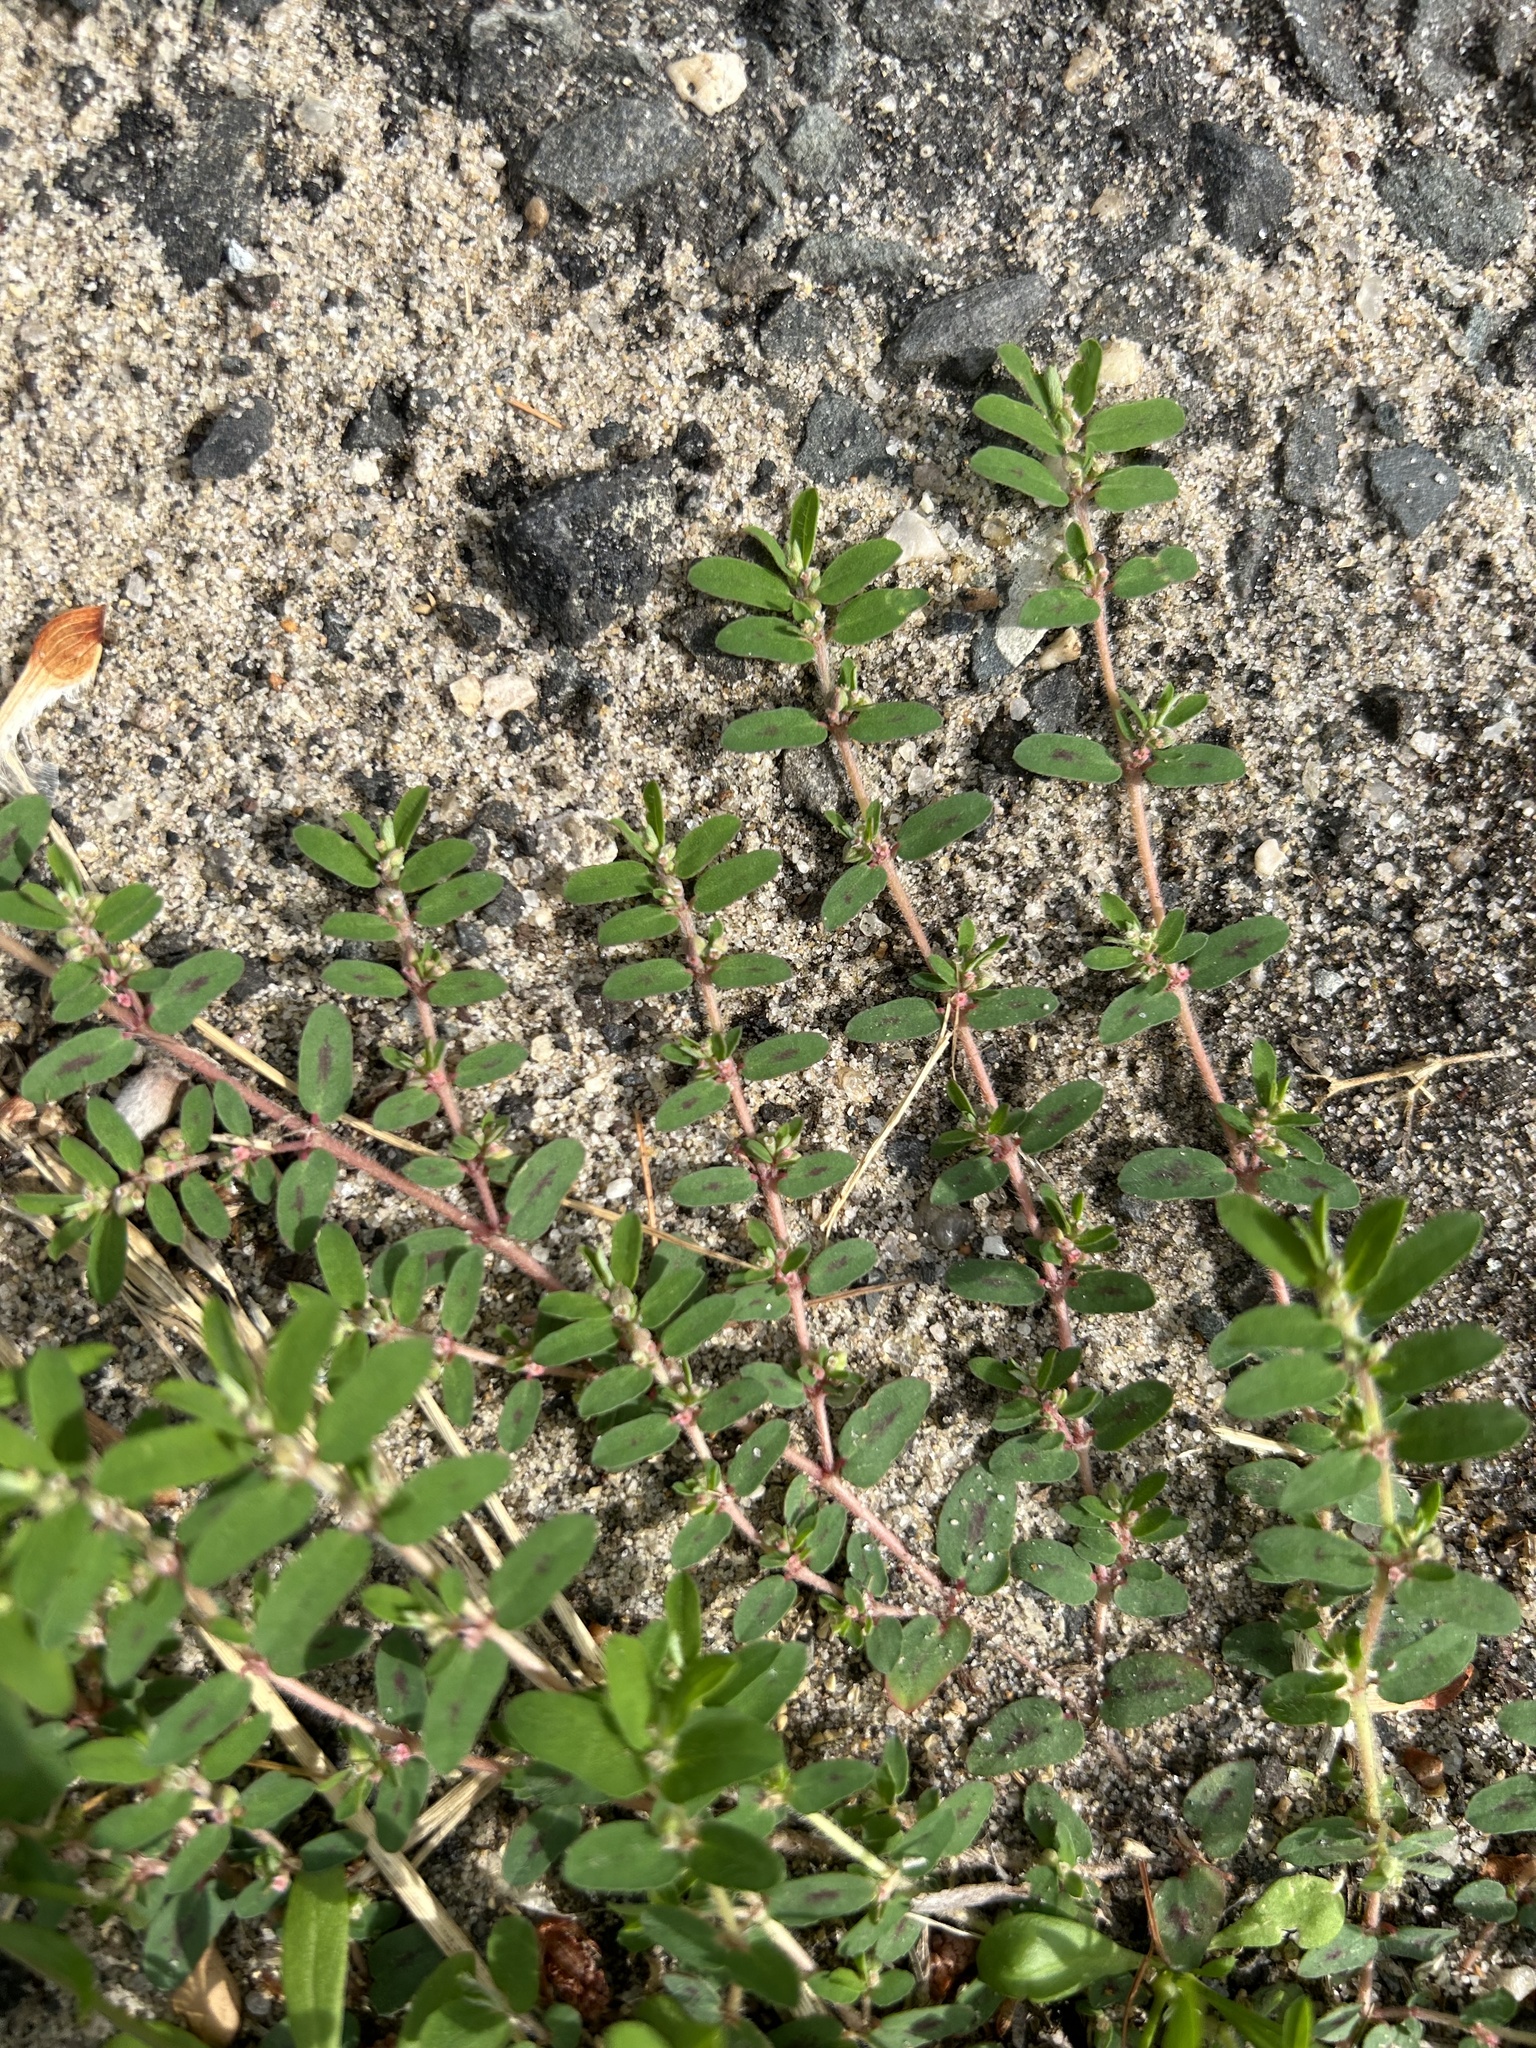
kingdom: Plantae
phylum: Tracheophyta
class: Magnoliopsida
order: Malpighiales
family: Euphorbiaceae
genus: Euphorbia
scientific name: Euphorbia maculata
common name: Spotted spurge
